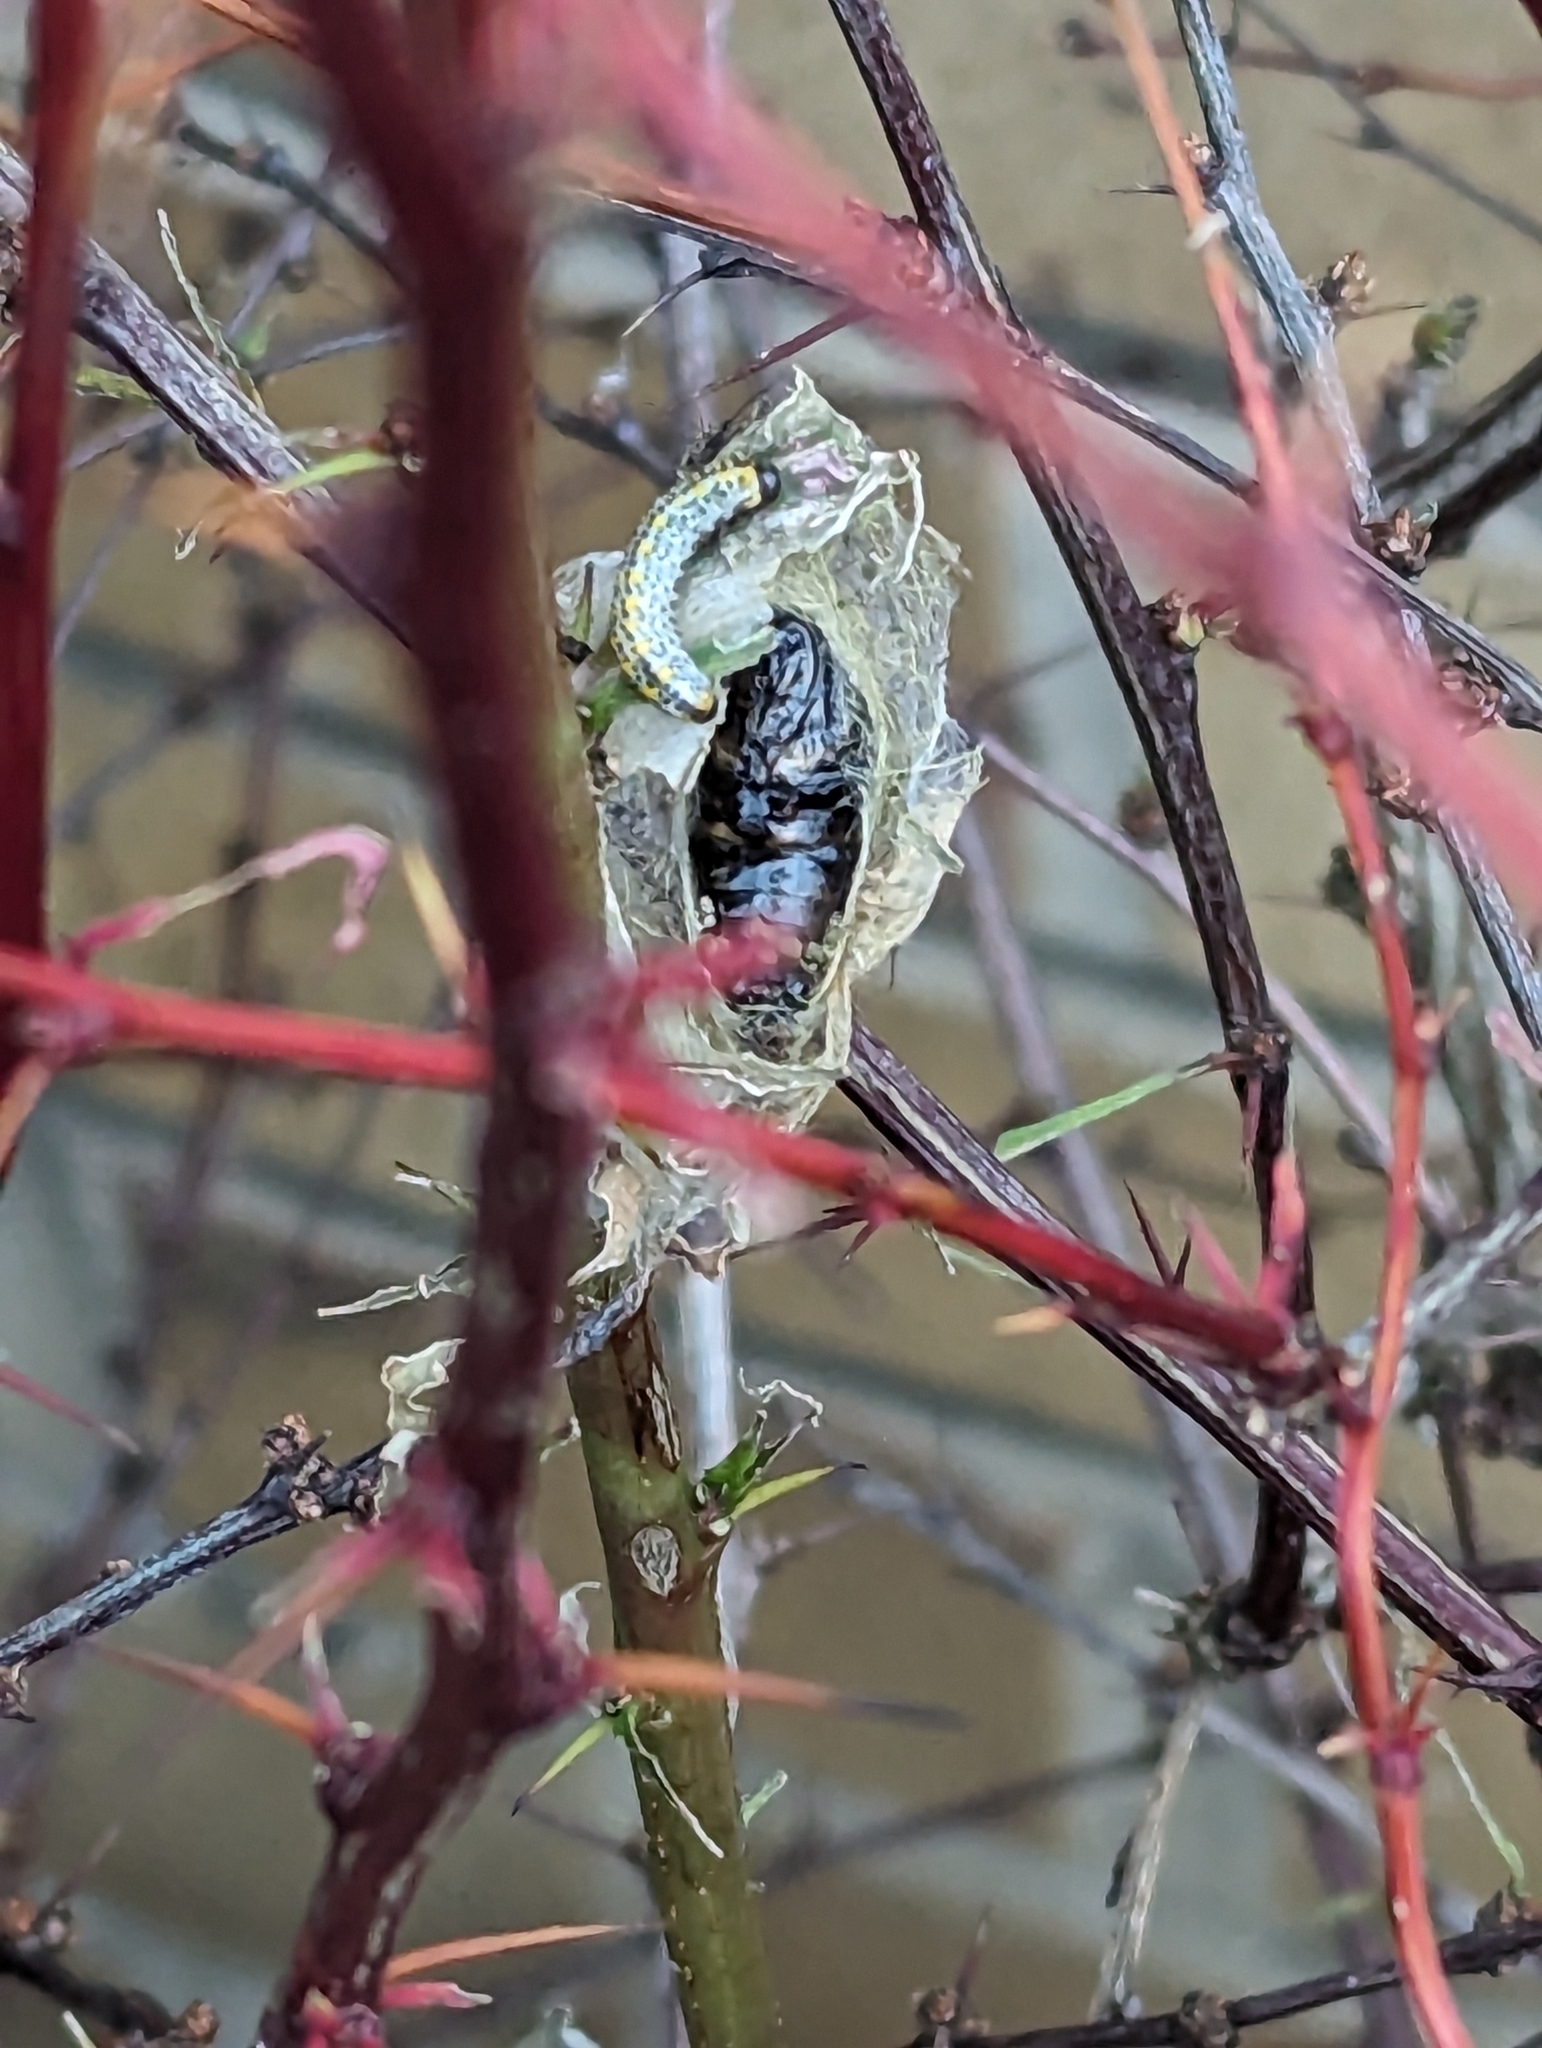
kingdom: Animalia
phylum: Arthropoda
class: Insecta
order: Hymenoptera
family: Argidae
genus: Arge
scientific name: Arge berberidis
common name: Berberis sawfly
